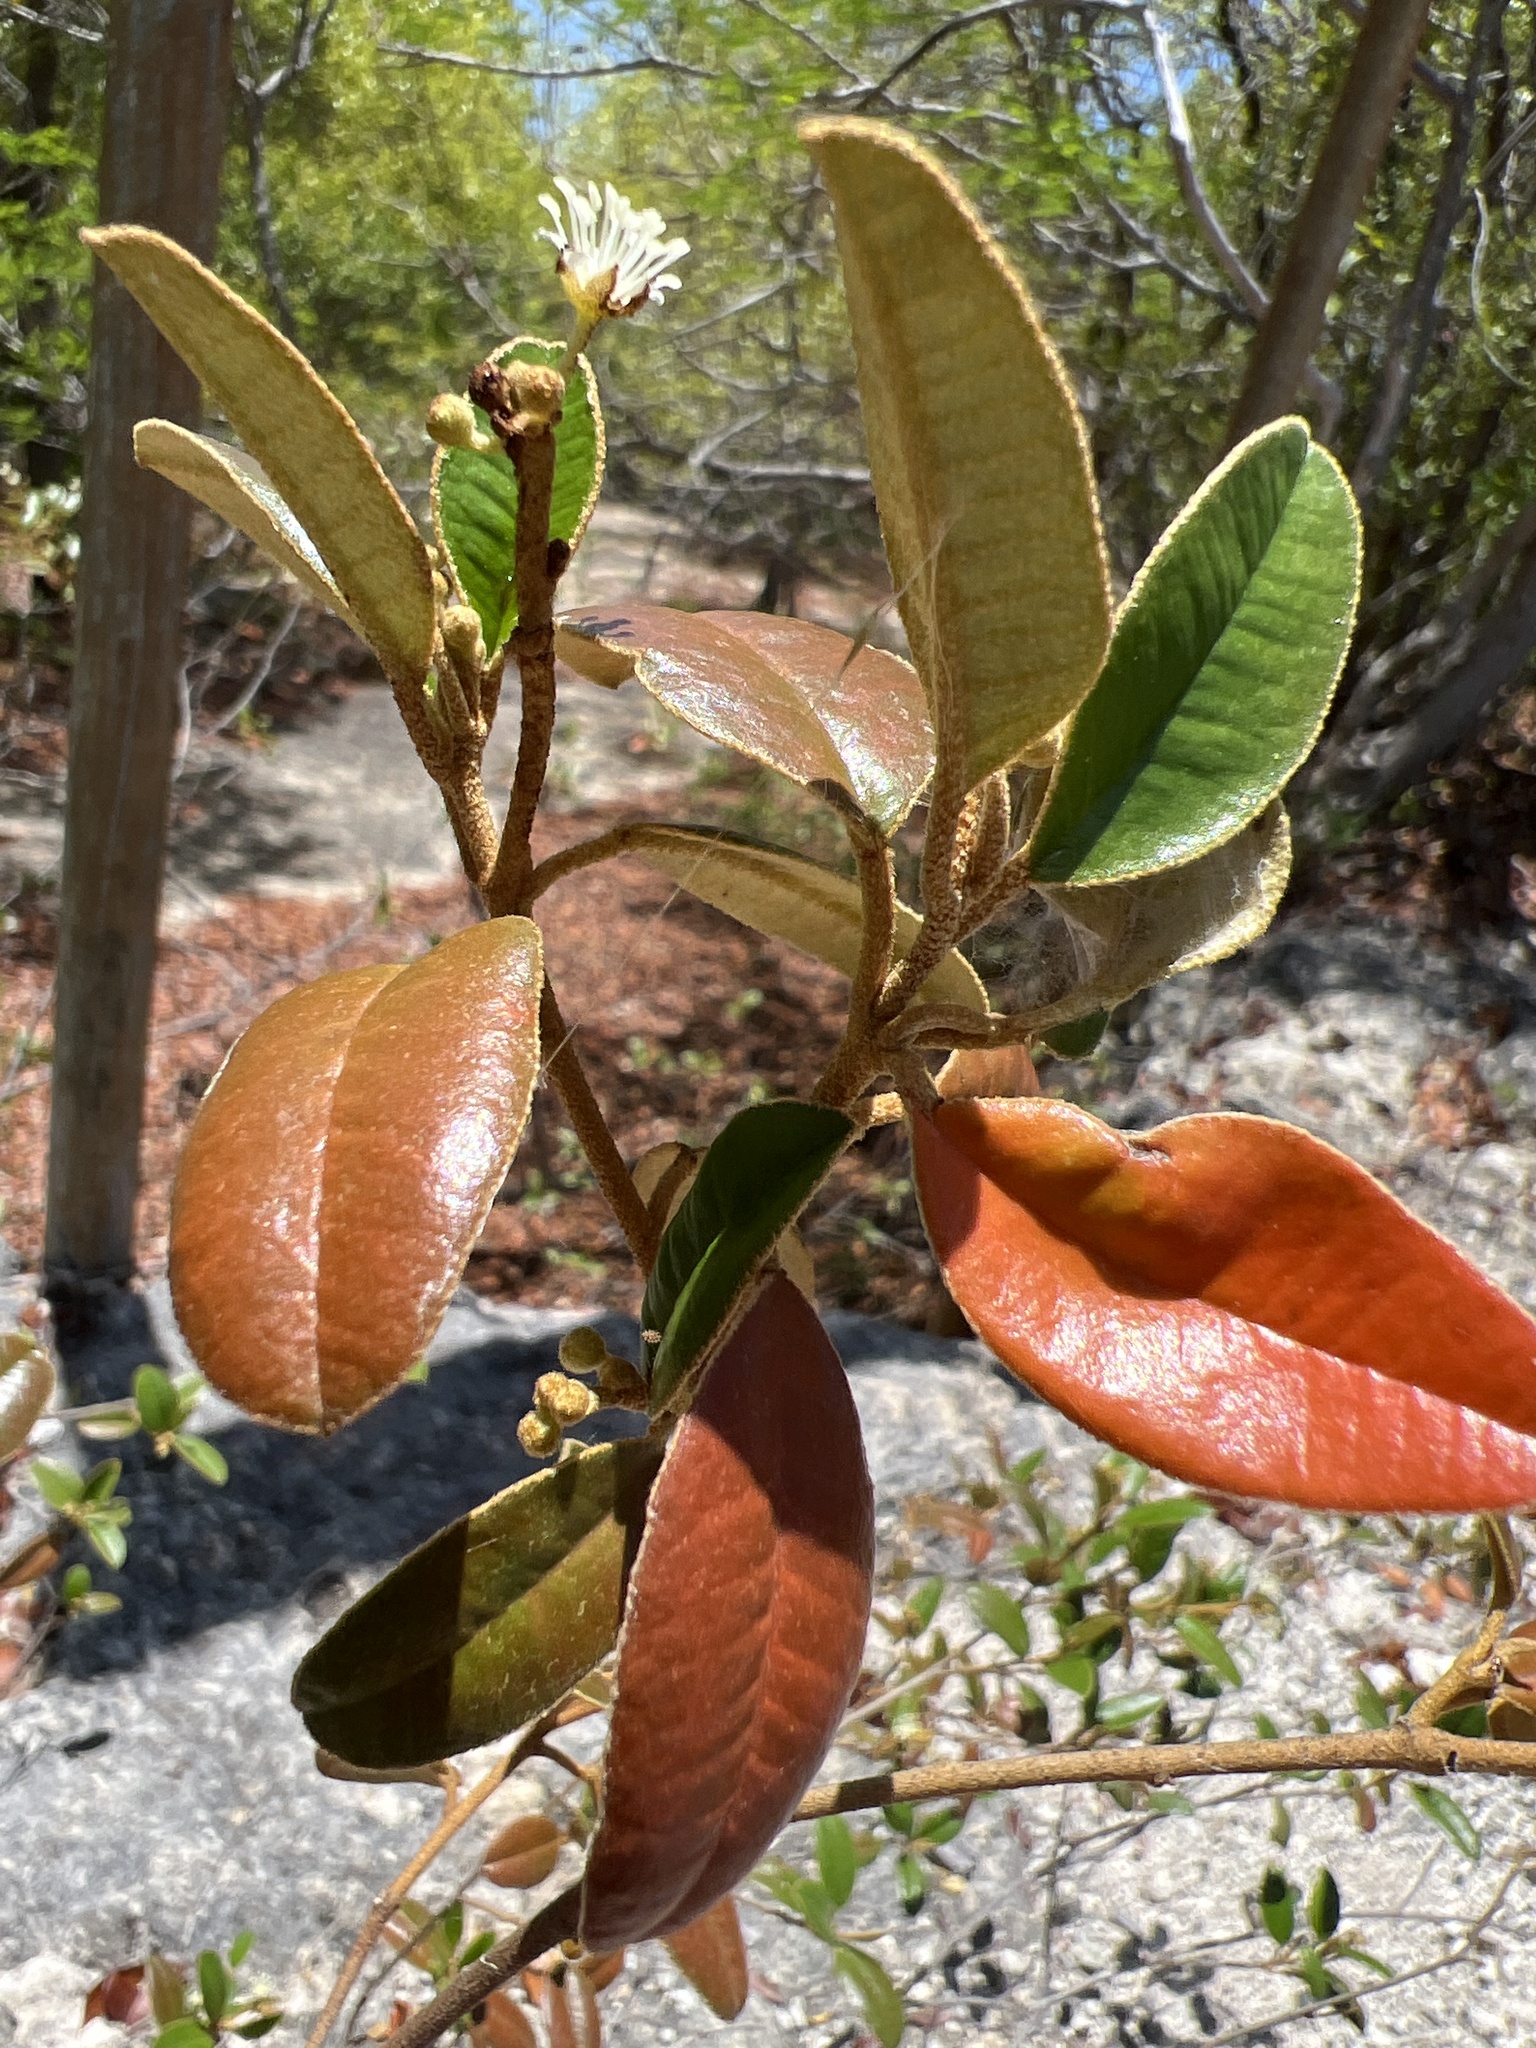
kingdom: Plantae
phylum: Tracheophyta
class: Magnoliopsida
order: Malpighiales
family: Euphorbiaceae
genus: Croton
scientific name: Croton discolor
